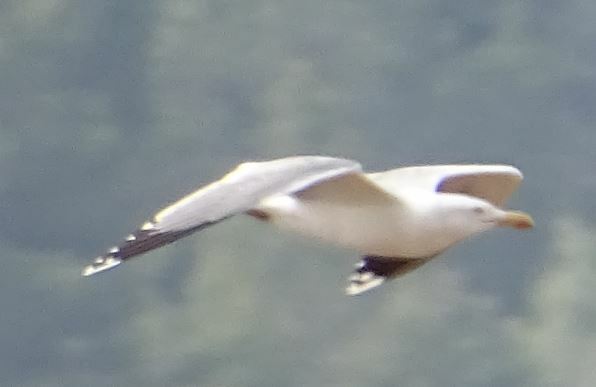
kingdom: Animalia
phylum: Chordata
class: Aves
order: Charadriiformes
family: Laridae
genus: Larus
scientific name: Larus michahellis
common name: Yellow-legged gull
